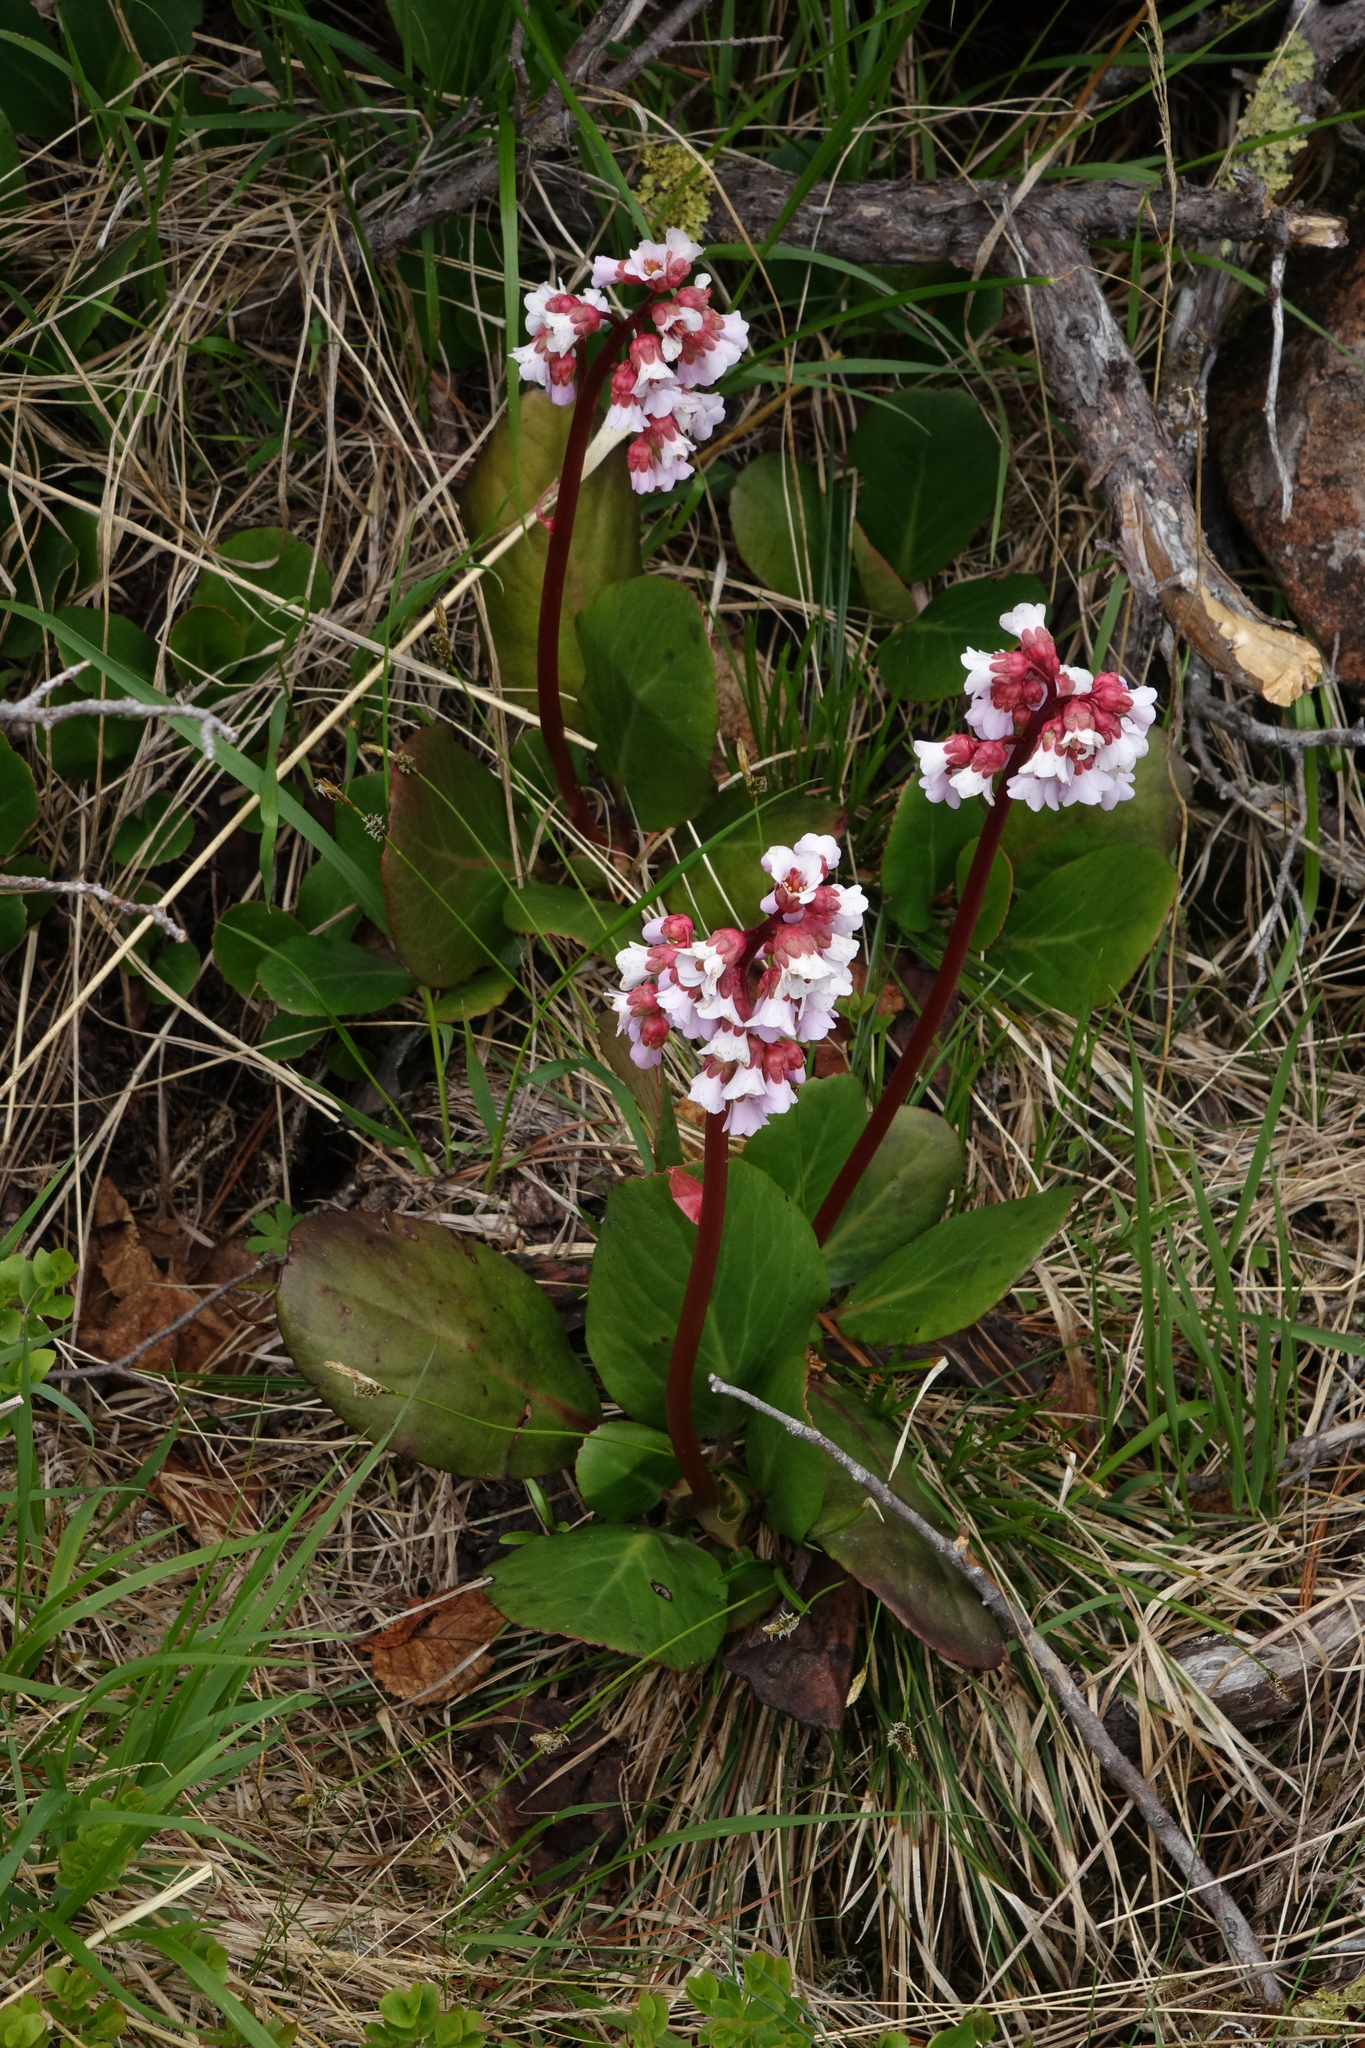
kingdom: Plantae
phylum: Tracheophyta
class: Magnoliopsida
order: Saxifragales
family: Saxifragaceae
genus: Bergenia
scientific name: Bergenia crassifolia
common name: Elephant-ears
